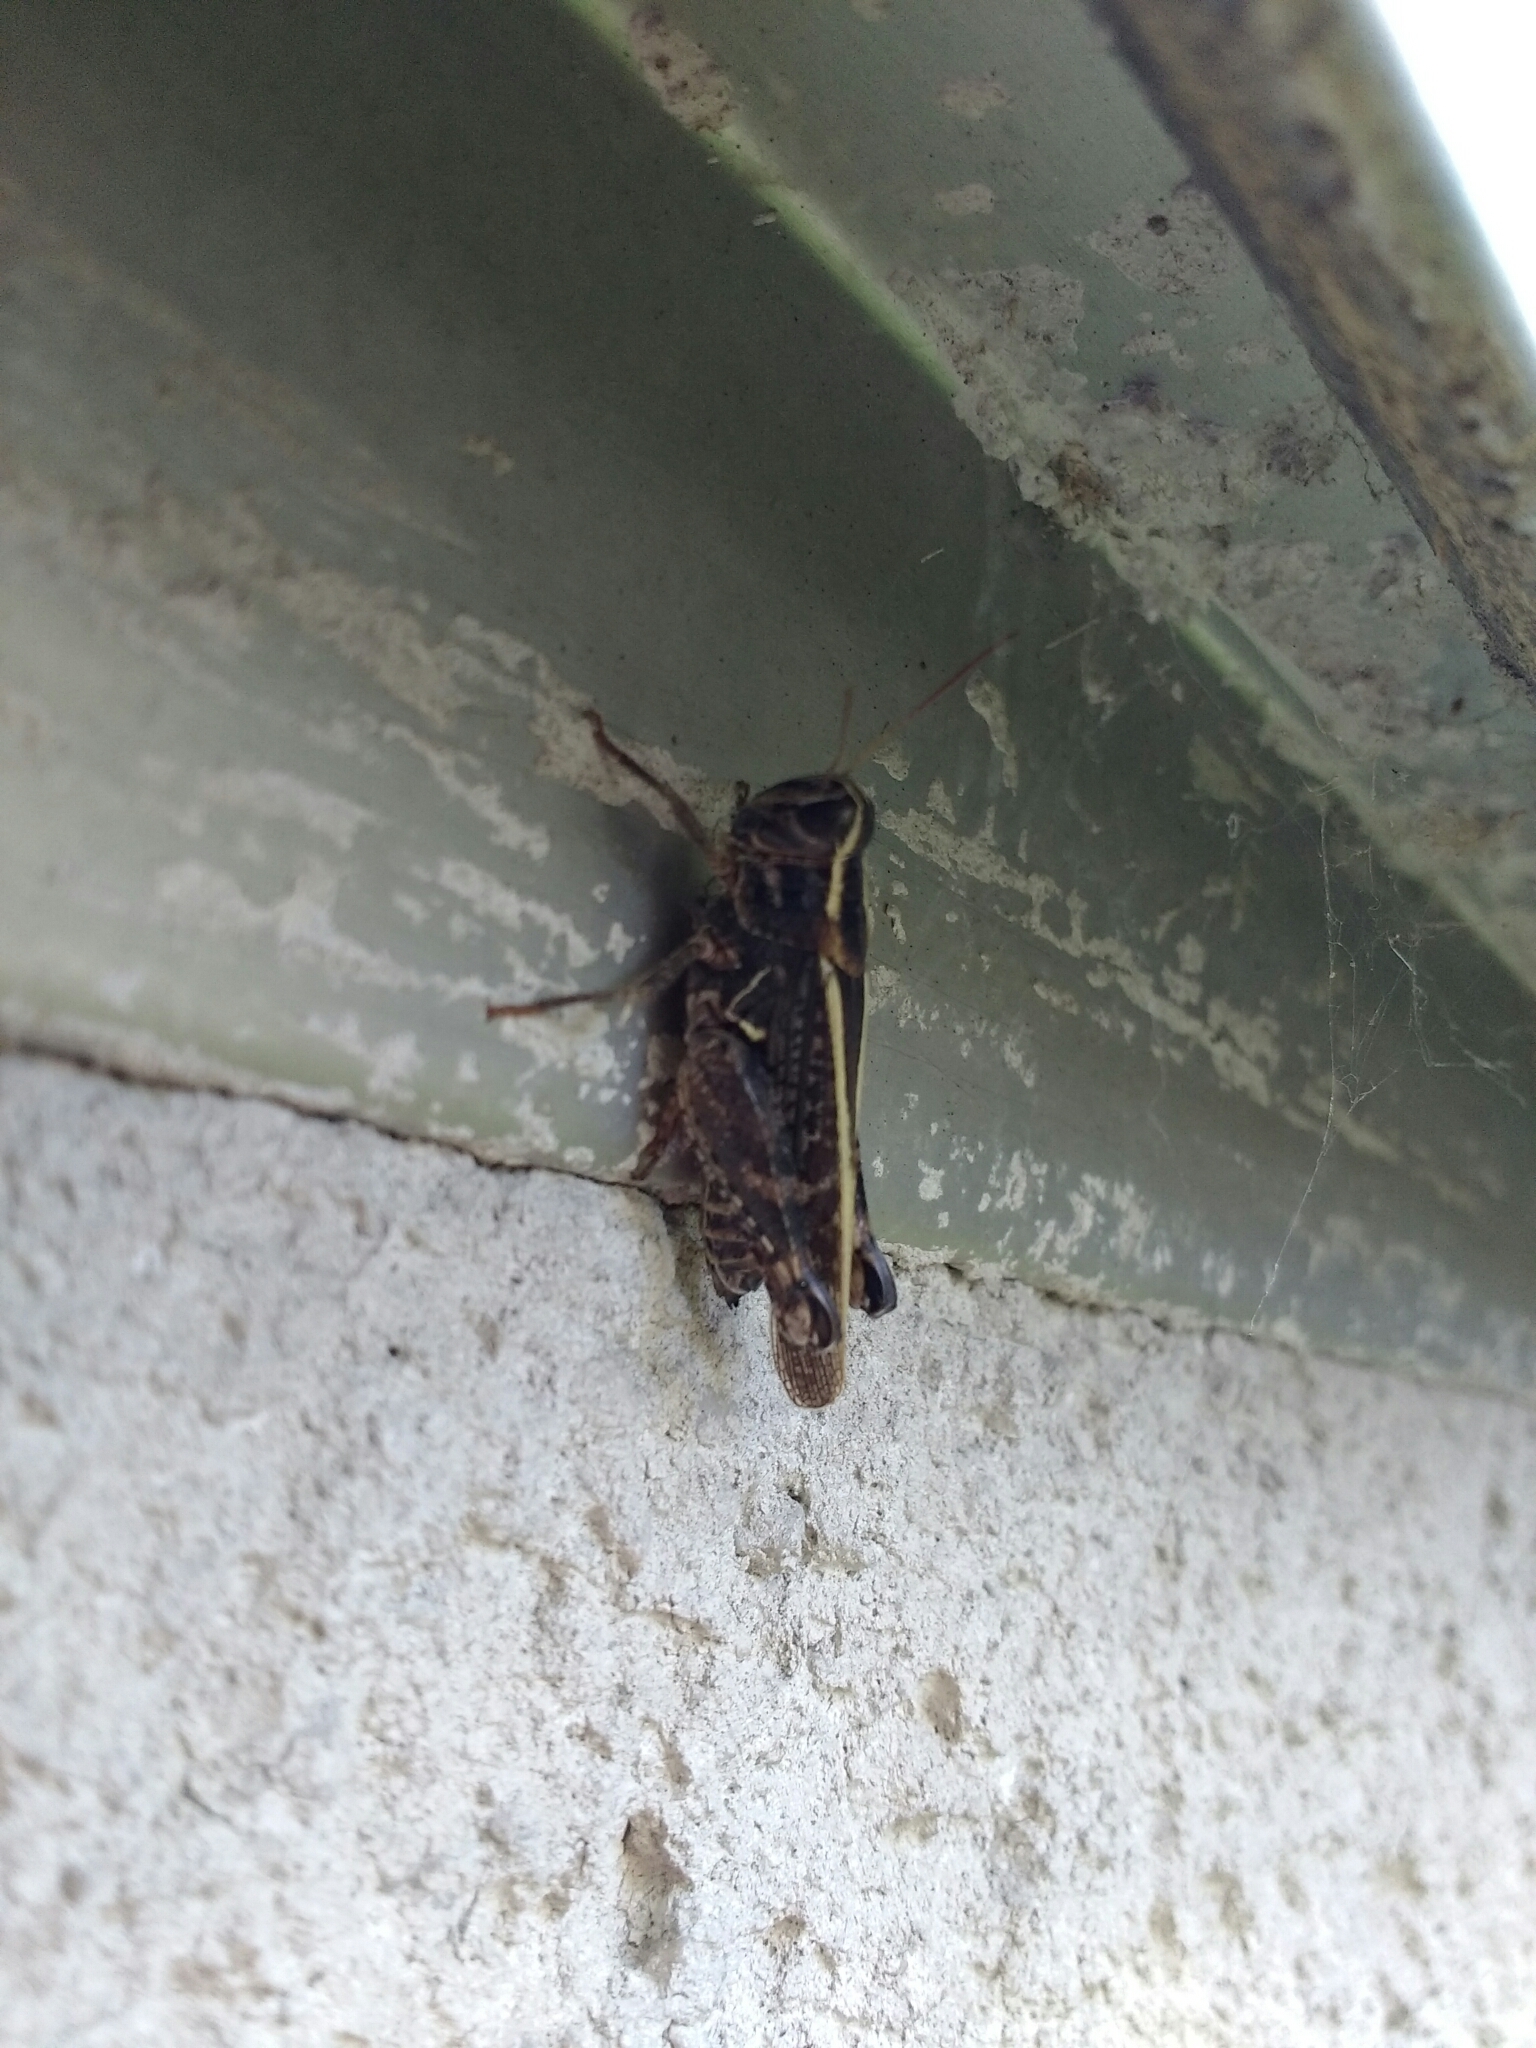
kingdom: Animalia
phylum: Arthropoda
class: Insecta
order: Orthoptera
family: Acrididae
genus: Calliptamus
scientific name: Calliptamus italicus
